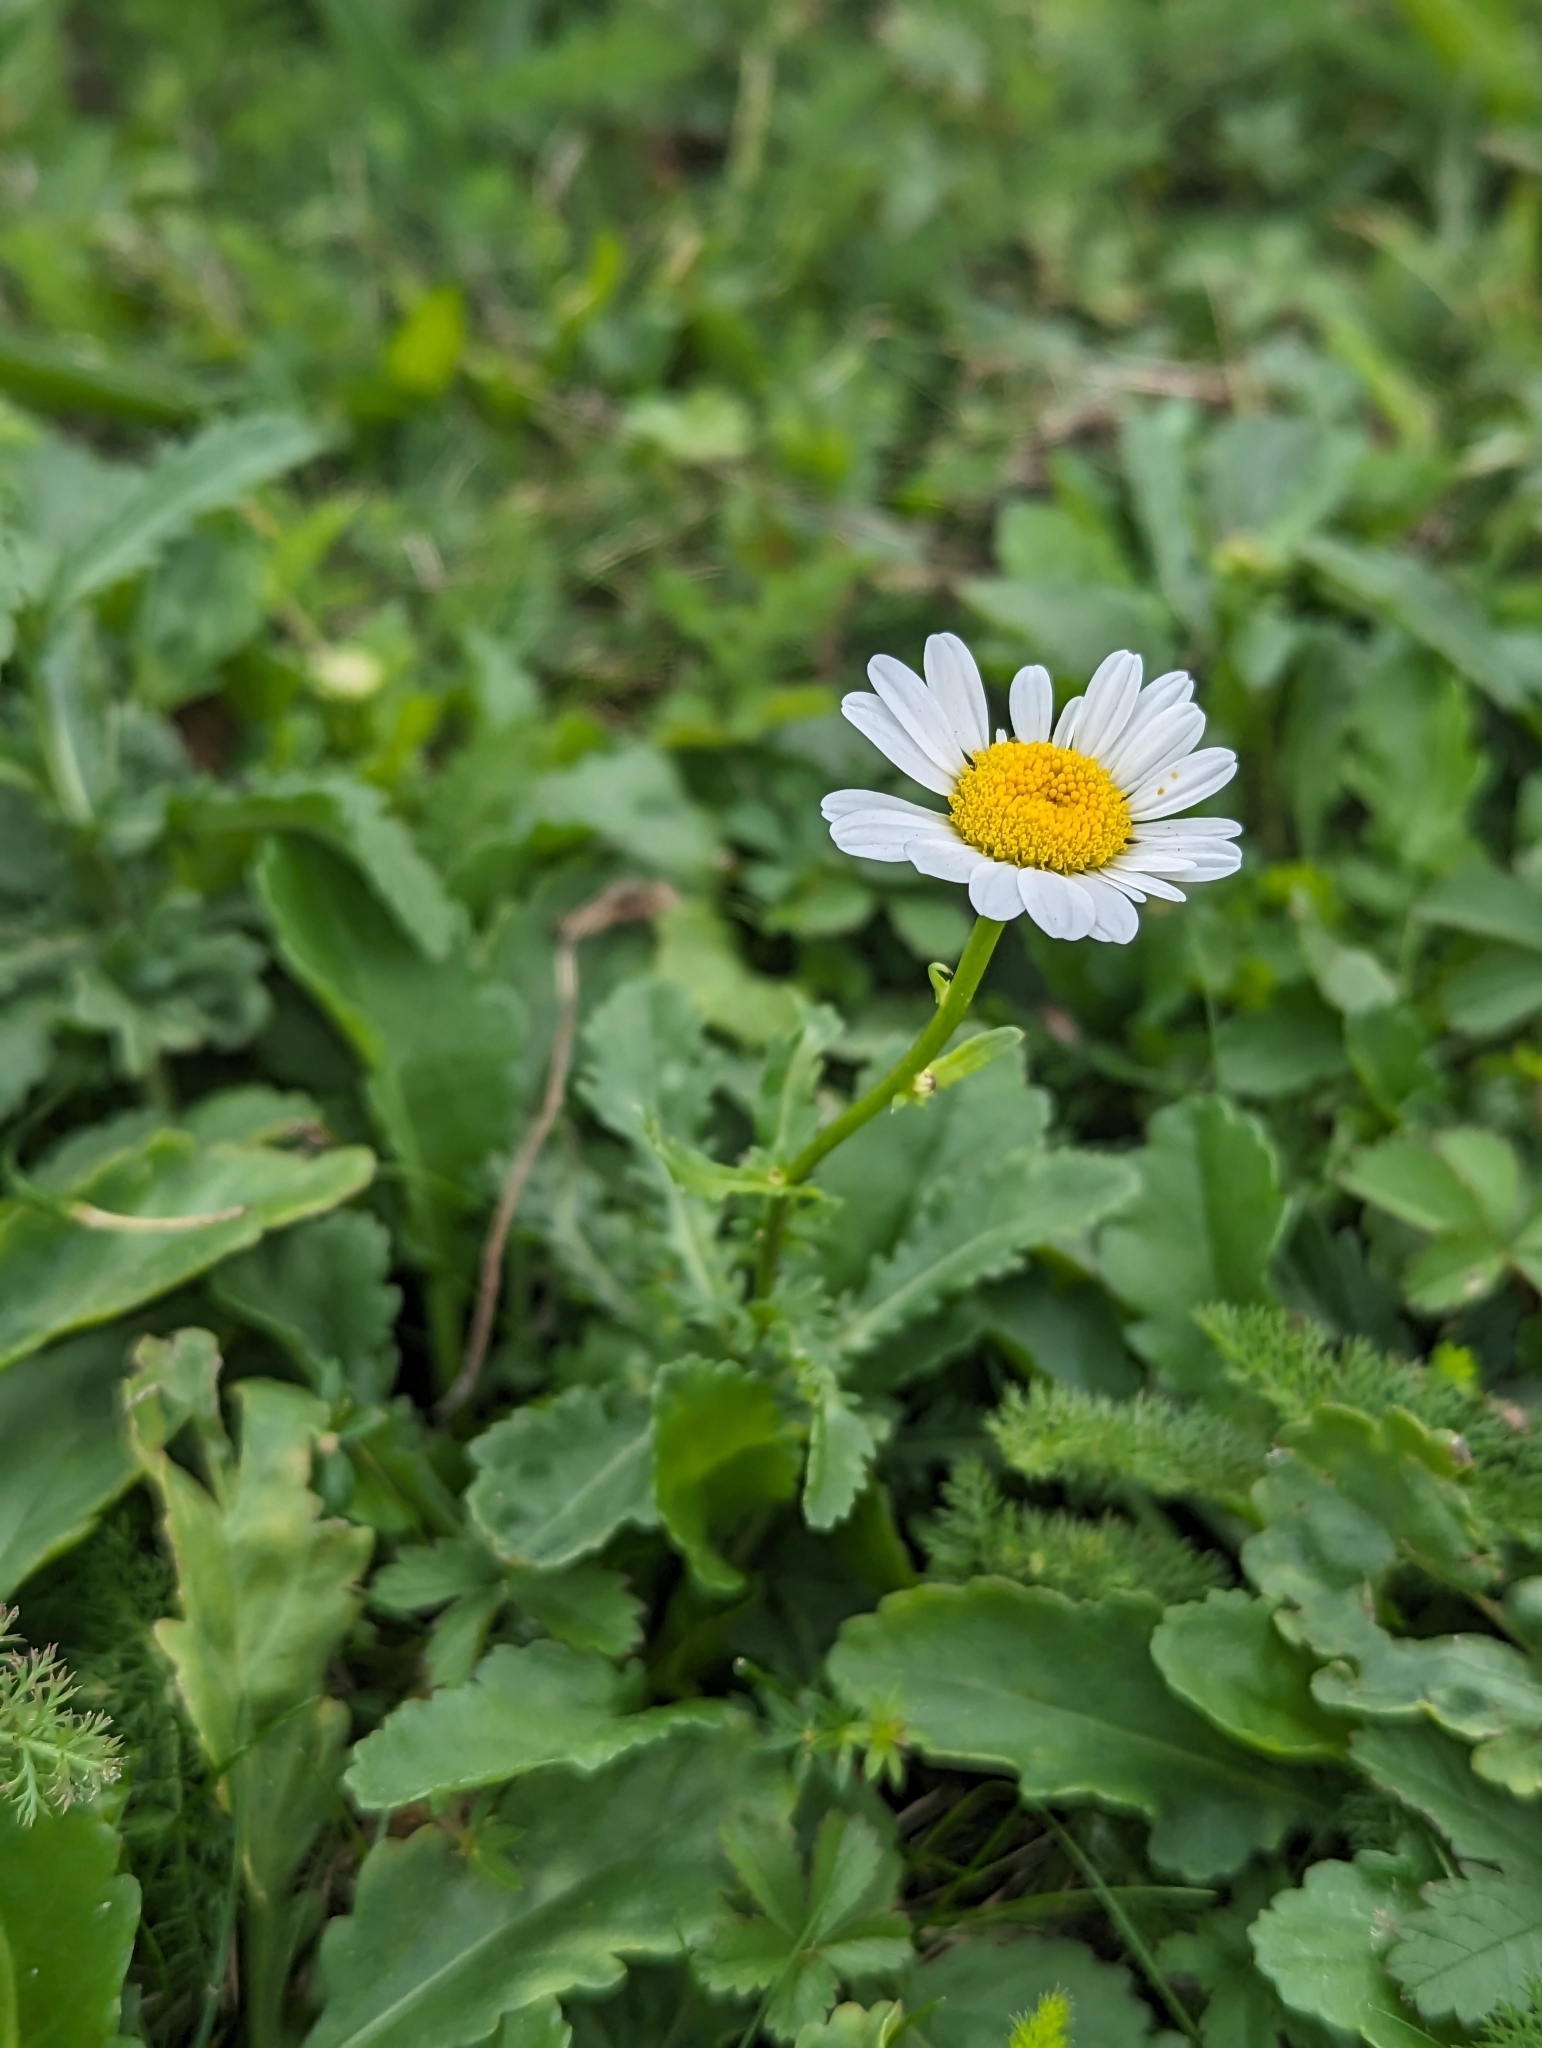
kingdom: Plantae
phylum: Tracheophyta
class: Magnoliopsida
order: Asterales
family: Asteraceae
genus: Leucanthemum
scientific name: Leucanthemum vulgare
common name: Oxeye daisy
